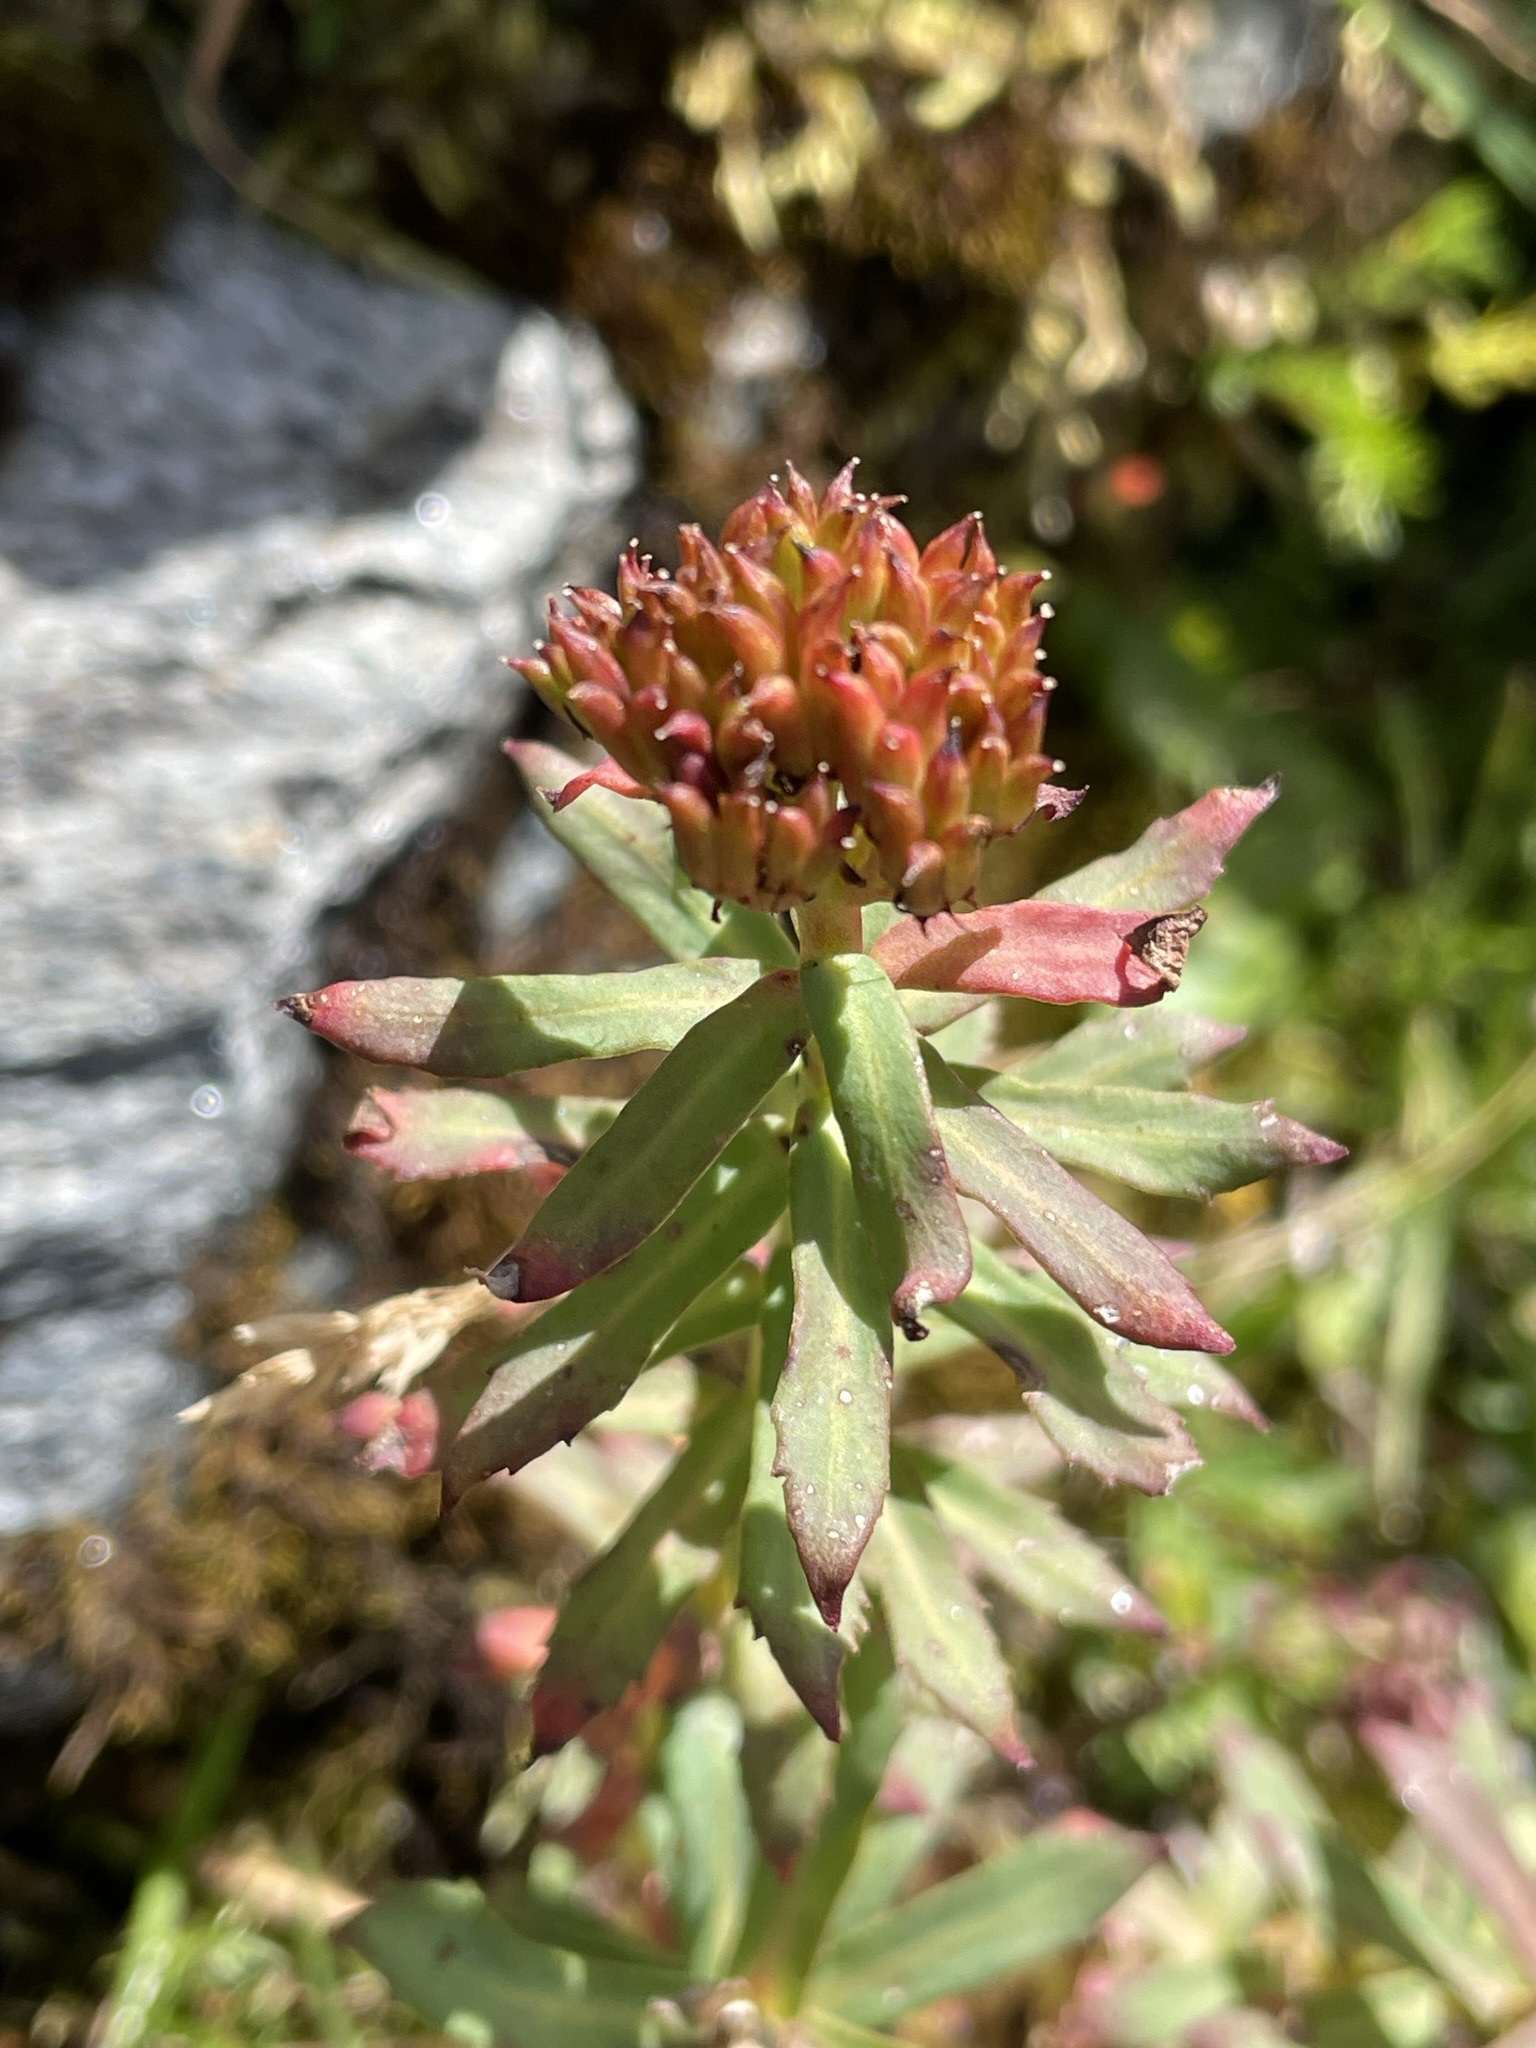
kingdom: Plantae
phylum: Tracheophyta
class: Magnoliopsida
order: Saxifragales
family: Crassulaceae
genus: Rhodiola
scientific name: Rhodiola rosea
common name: Roseroot
